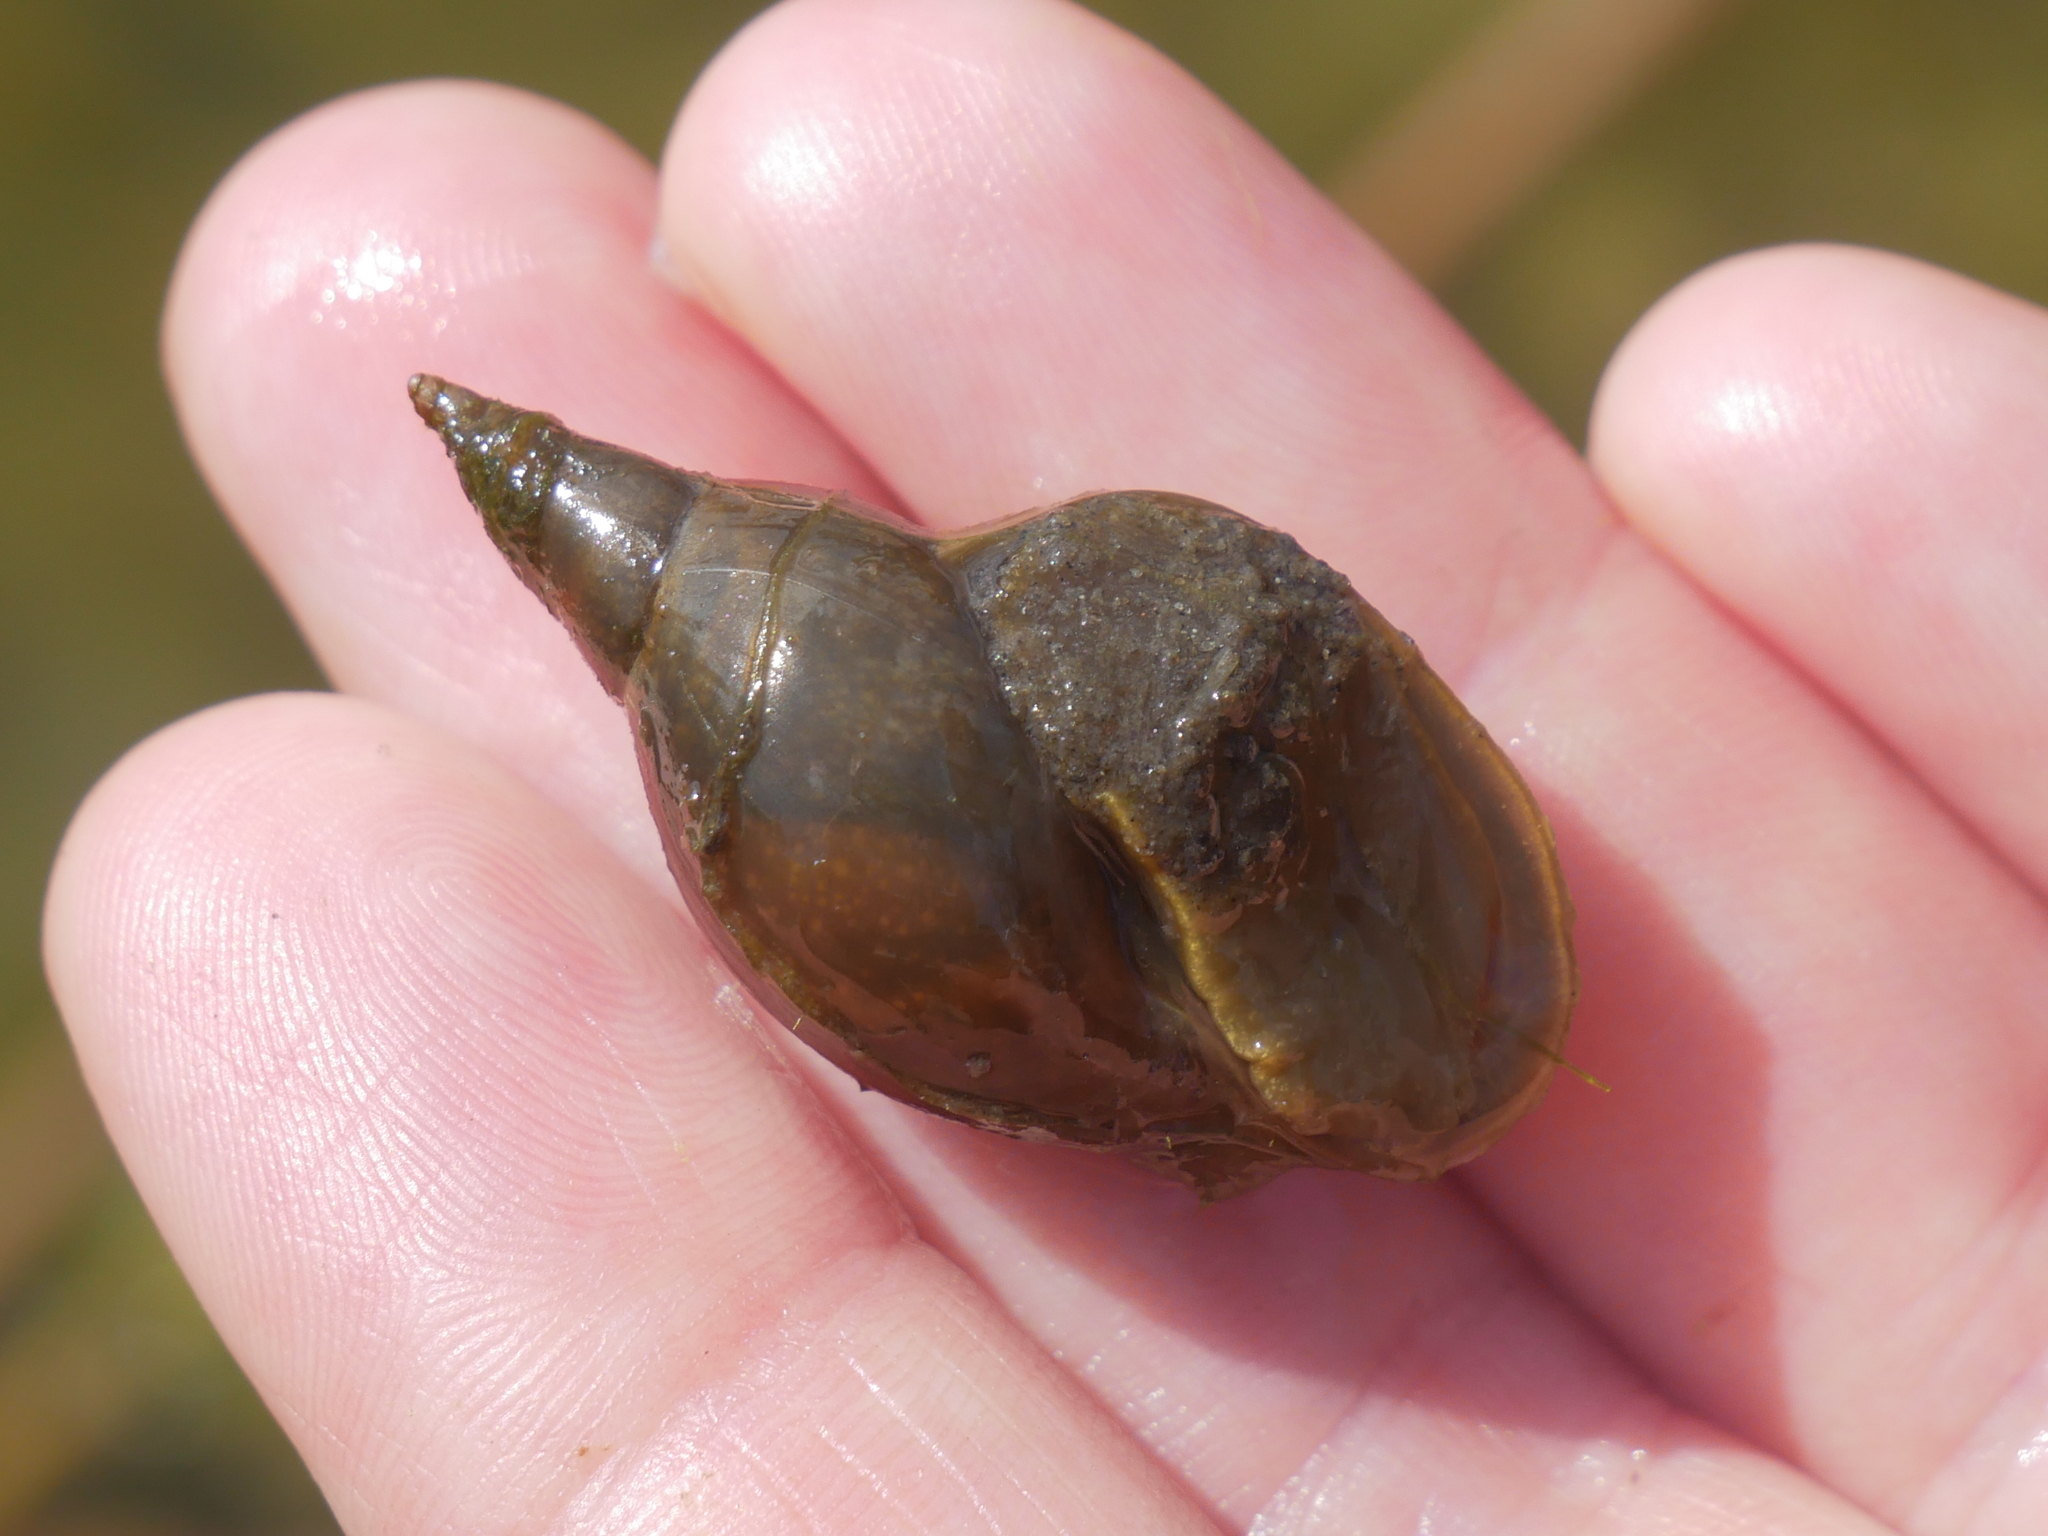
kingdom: Animalia
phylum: Mollusca
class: Gastropoda
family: Lymnaeidae
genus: Lymnaea
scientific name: Lymnaea stagnalis
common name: Great pond snail
